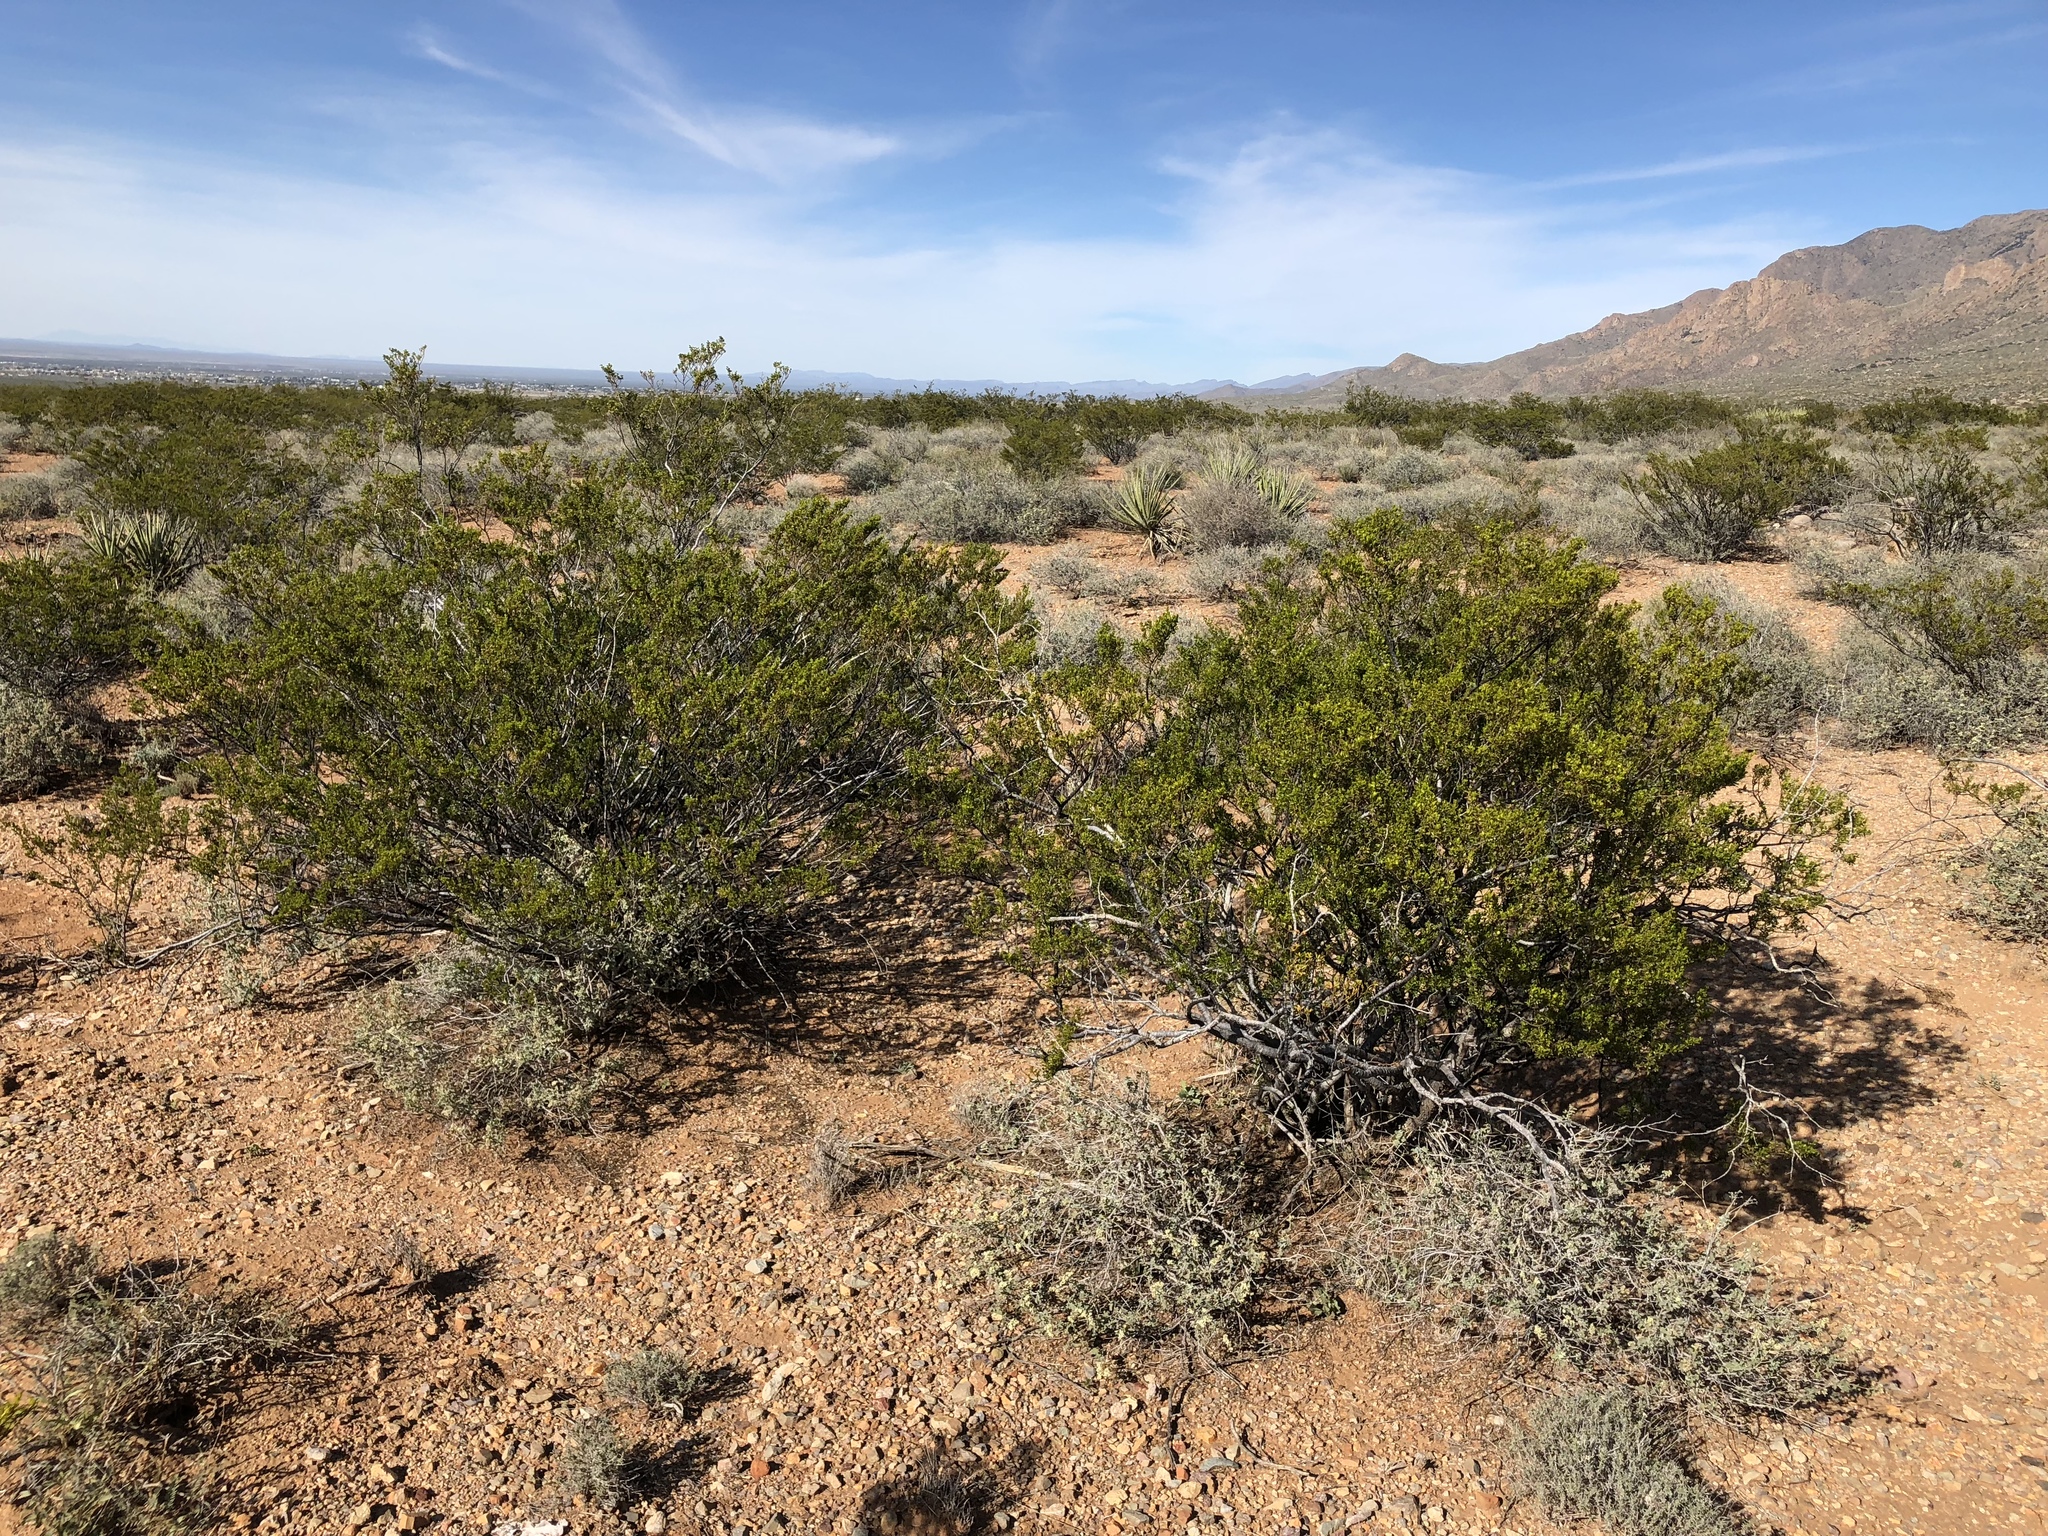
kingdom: Plantae
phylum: Tracheophyta
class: Magnoliopsida
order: Zygophyllales
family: Zygophyllaceae
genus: Larrea
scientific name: Larrea tridentata
